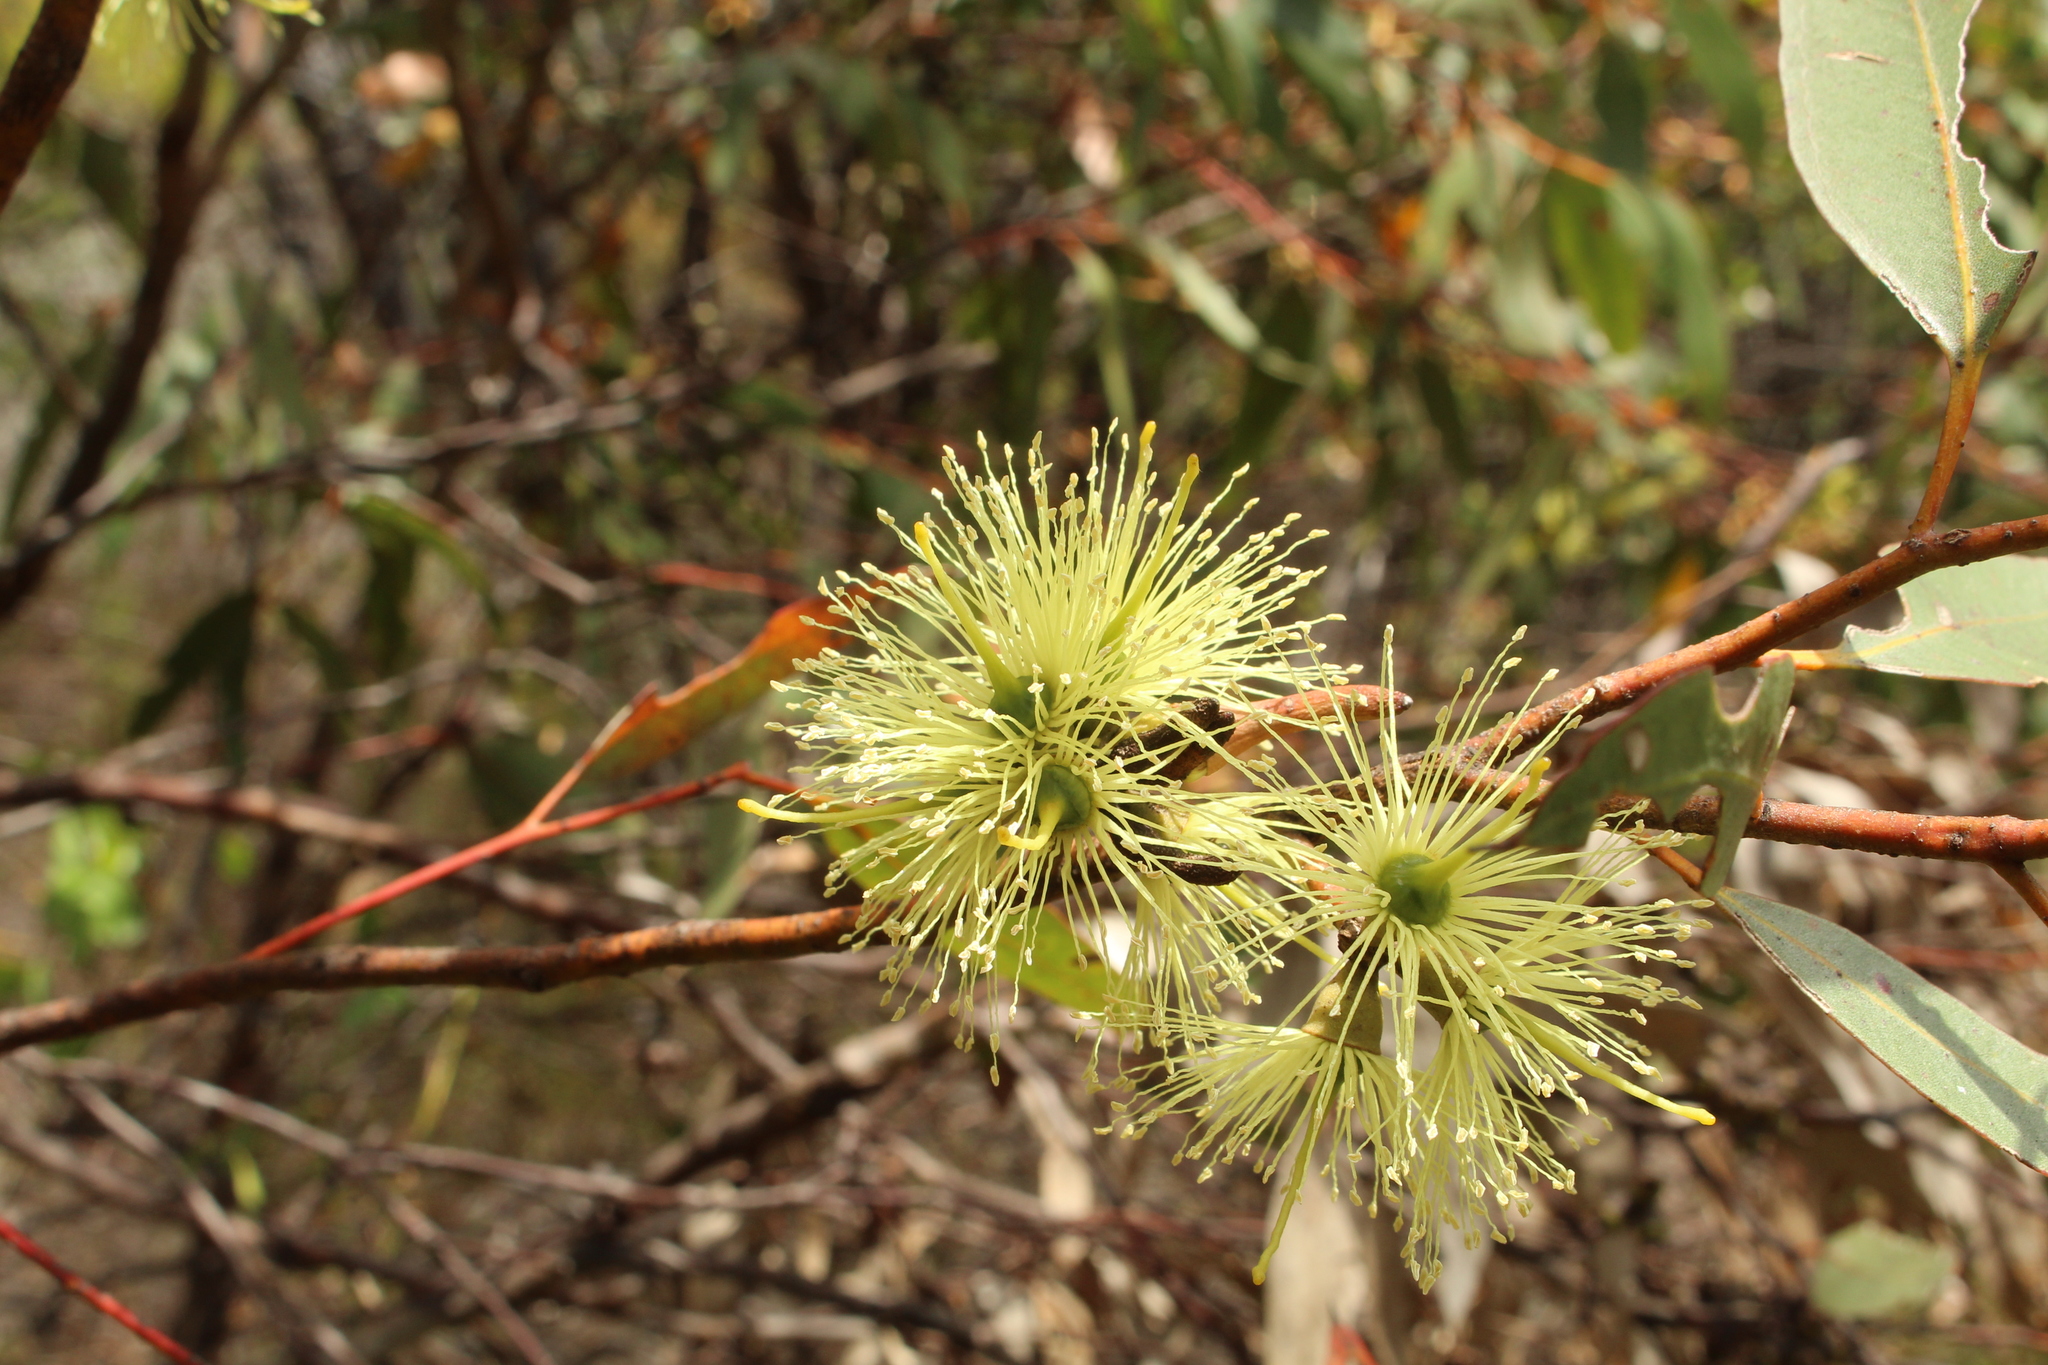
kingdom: Plantae
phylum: Tracheophyta
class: Magnoliopsida
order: Myrtales
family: Myrtaceae
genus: Eucalyptus
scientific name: Eucalyptus cornuta
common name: Yate
